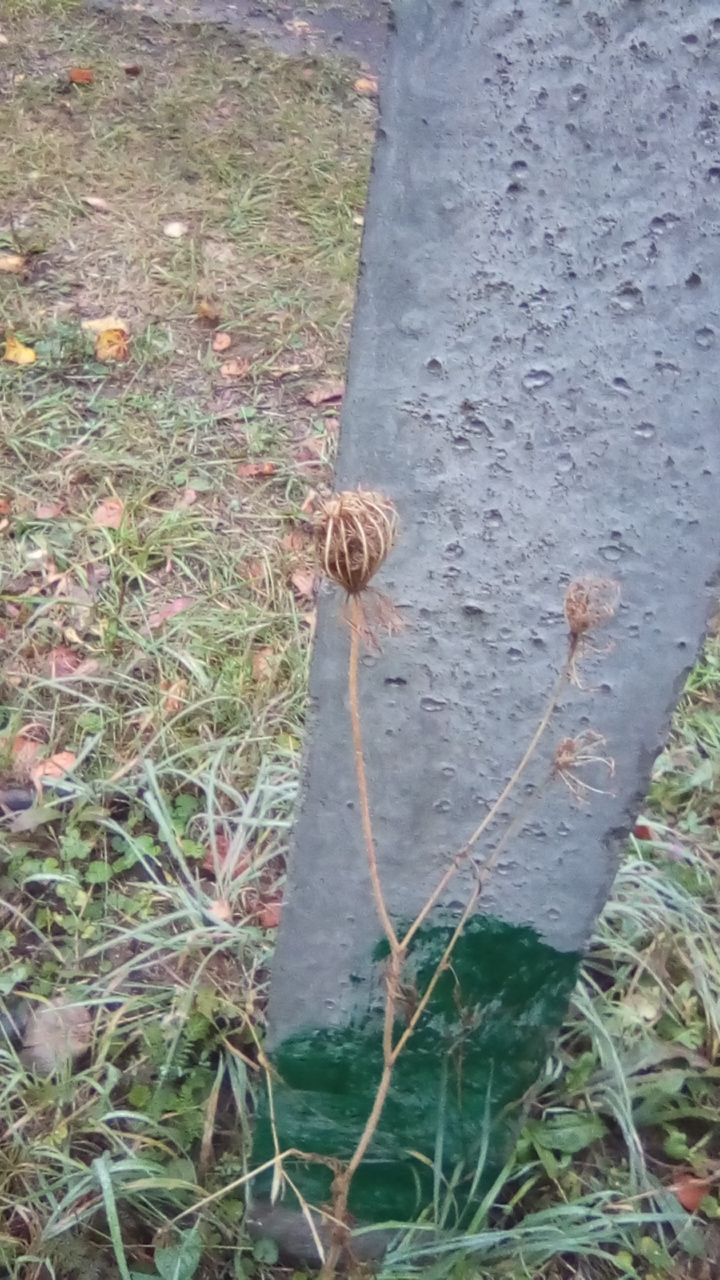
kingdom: Plantae
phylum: Tracheophyta
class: Magnoliopsida
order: Apiales
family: Apiaceae
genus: Daucus
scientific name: Daucus carota
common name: Wild carrot
